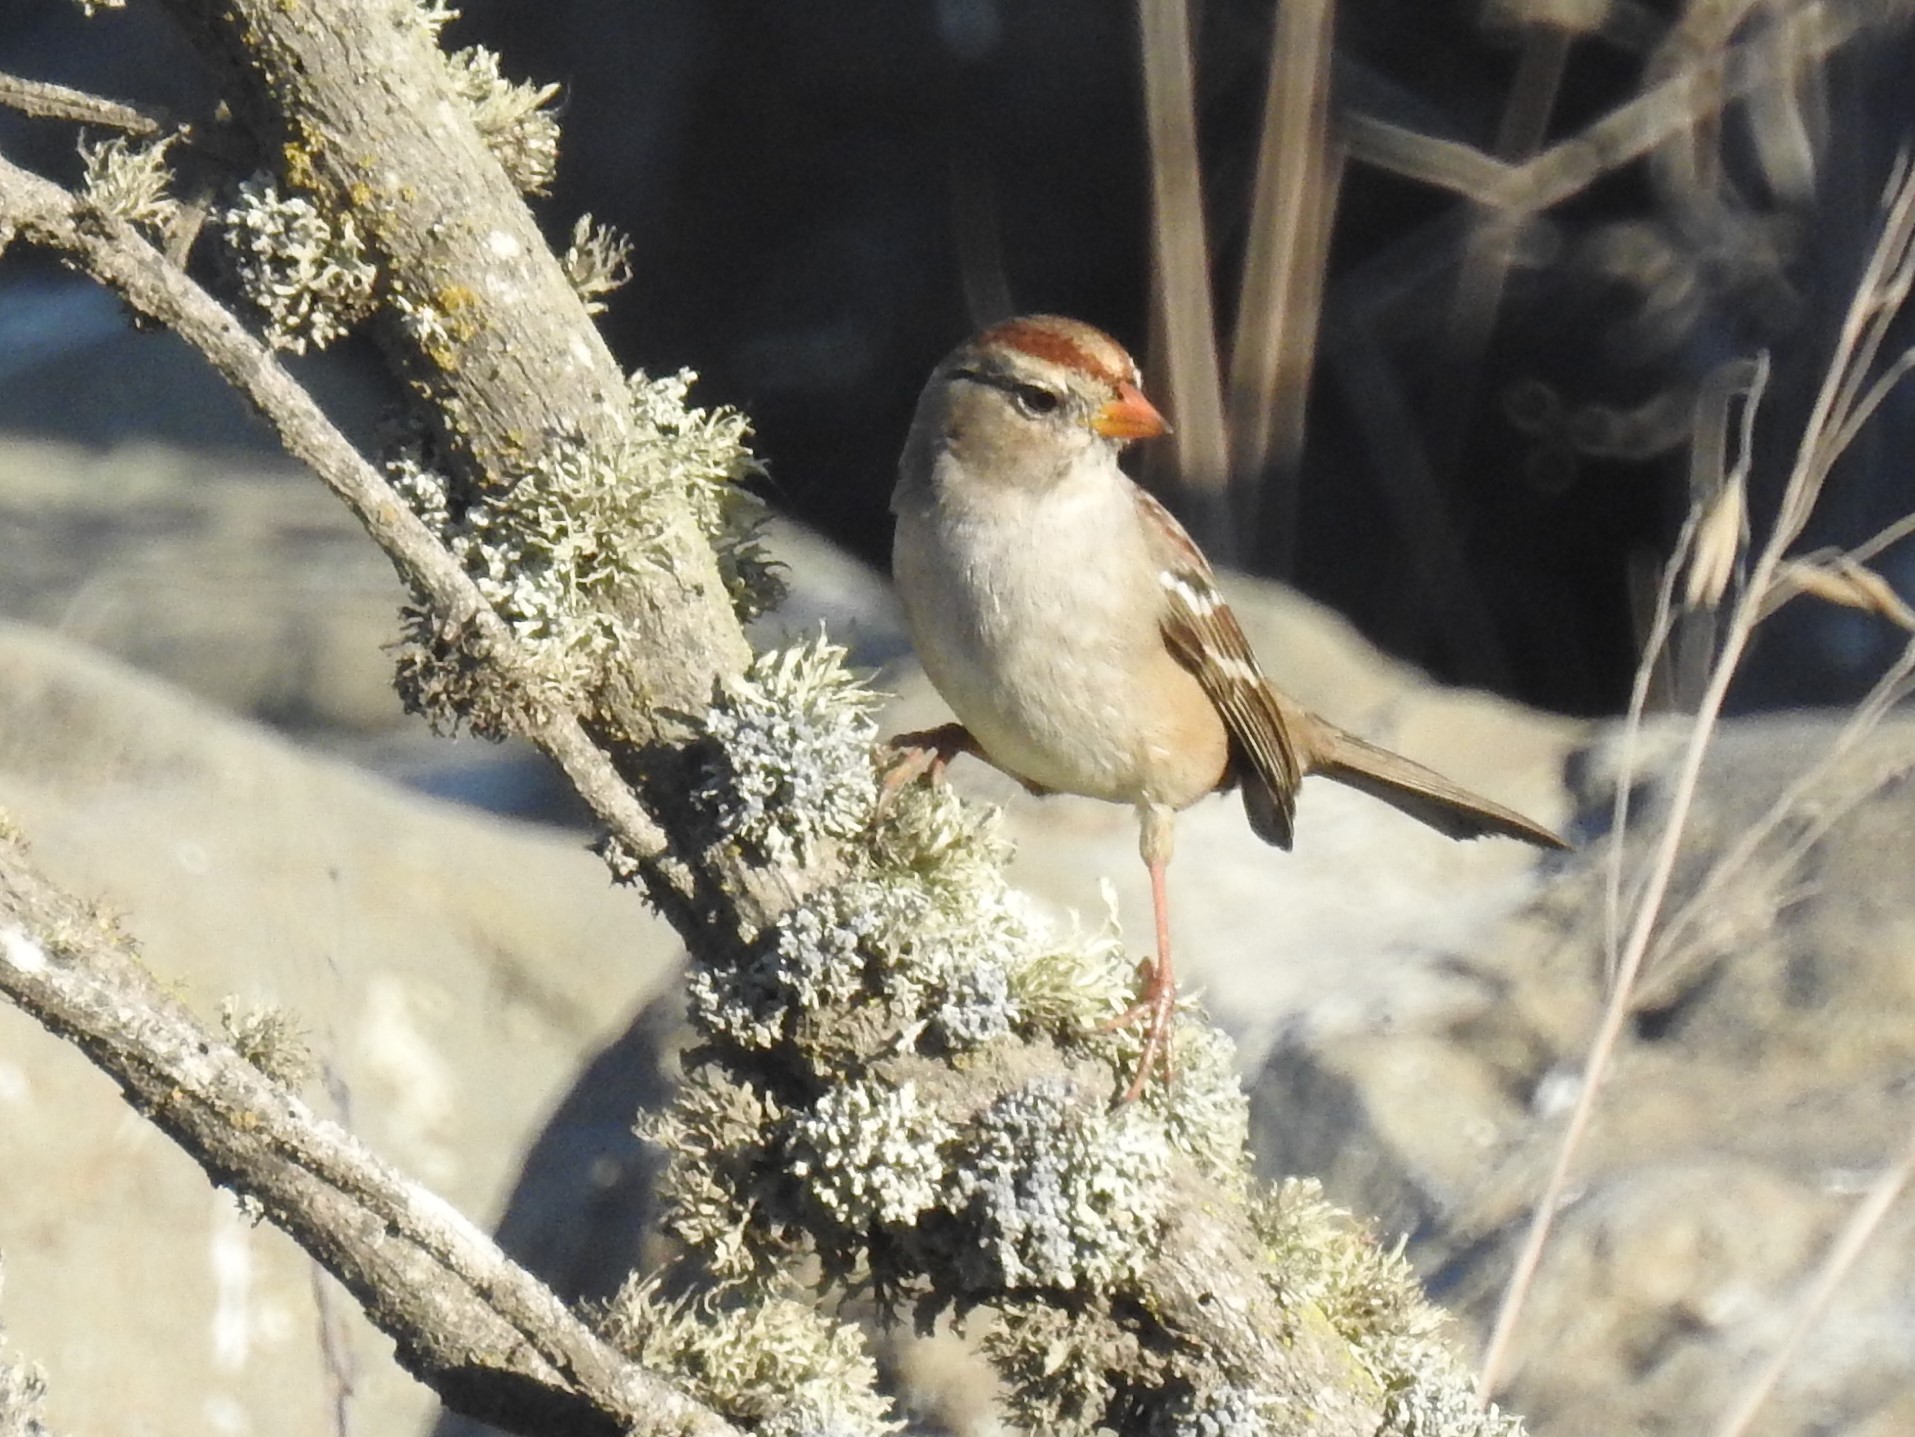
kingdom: Animalia
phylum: Chordata
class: Aves
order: Passeriformes
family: Passerellidae
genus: Zonotrichia
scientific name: Zonotrichia leucophrys
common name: White-crowned sparrow
